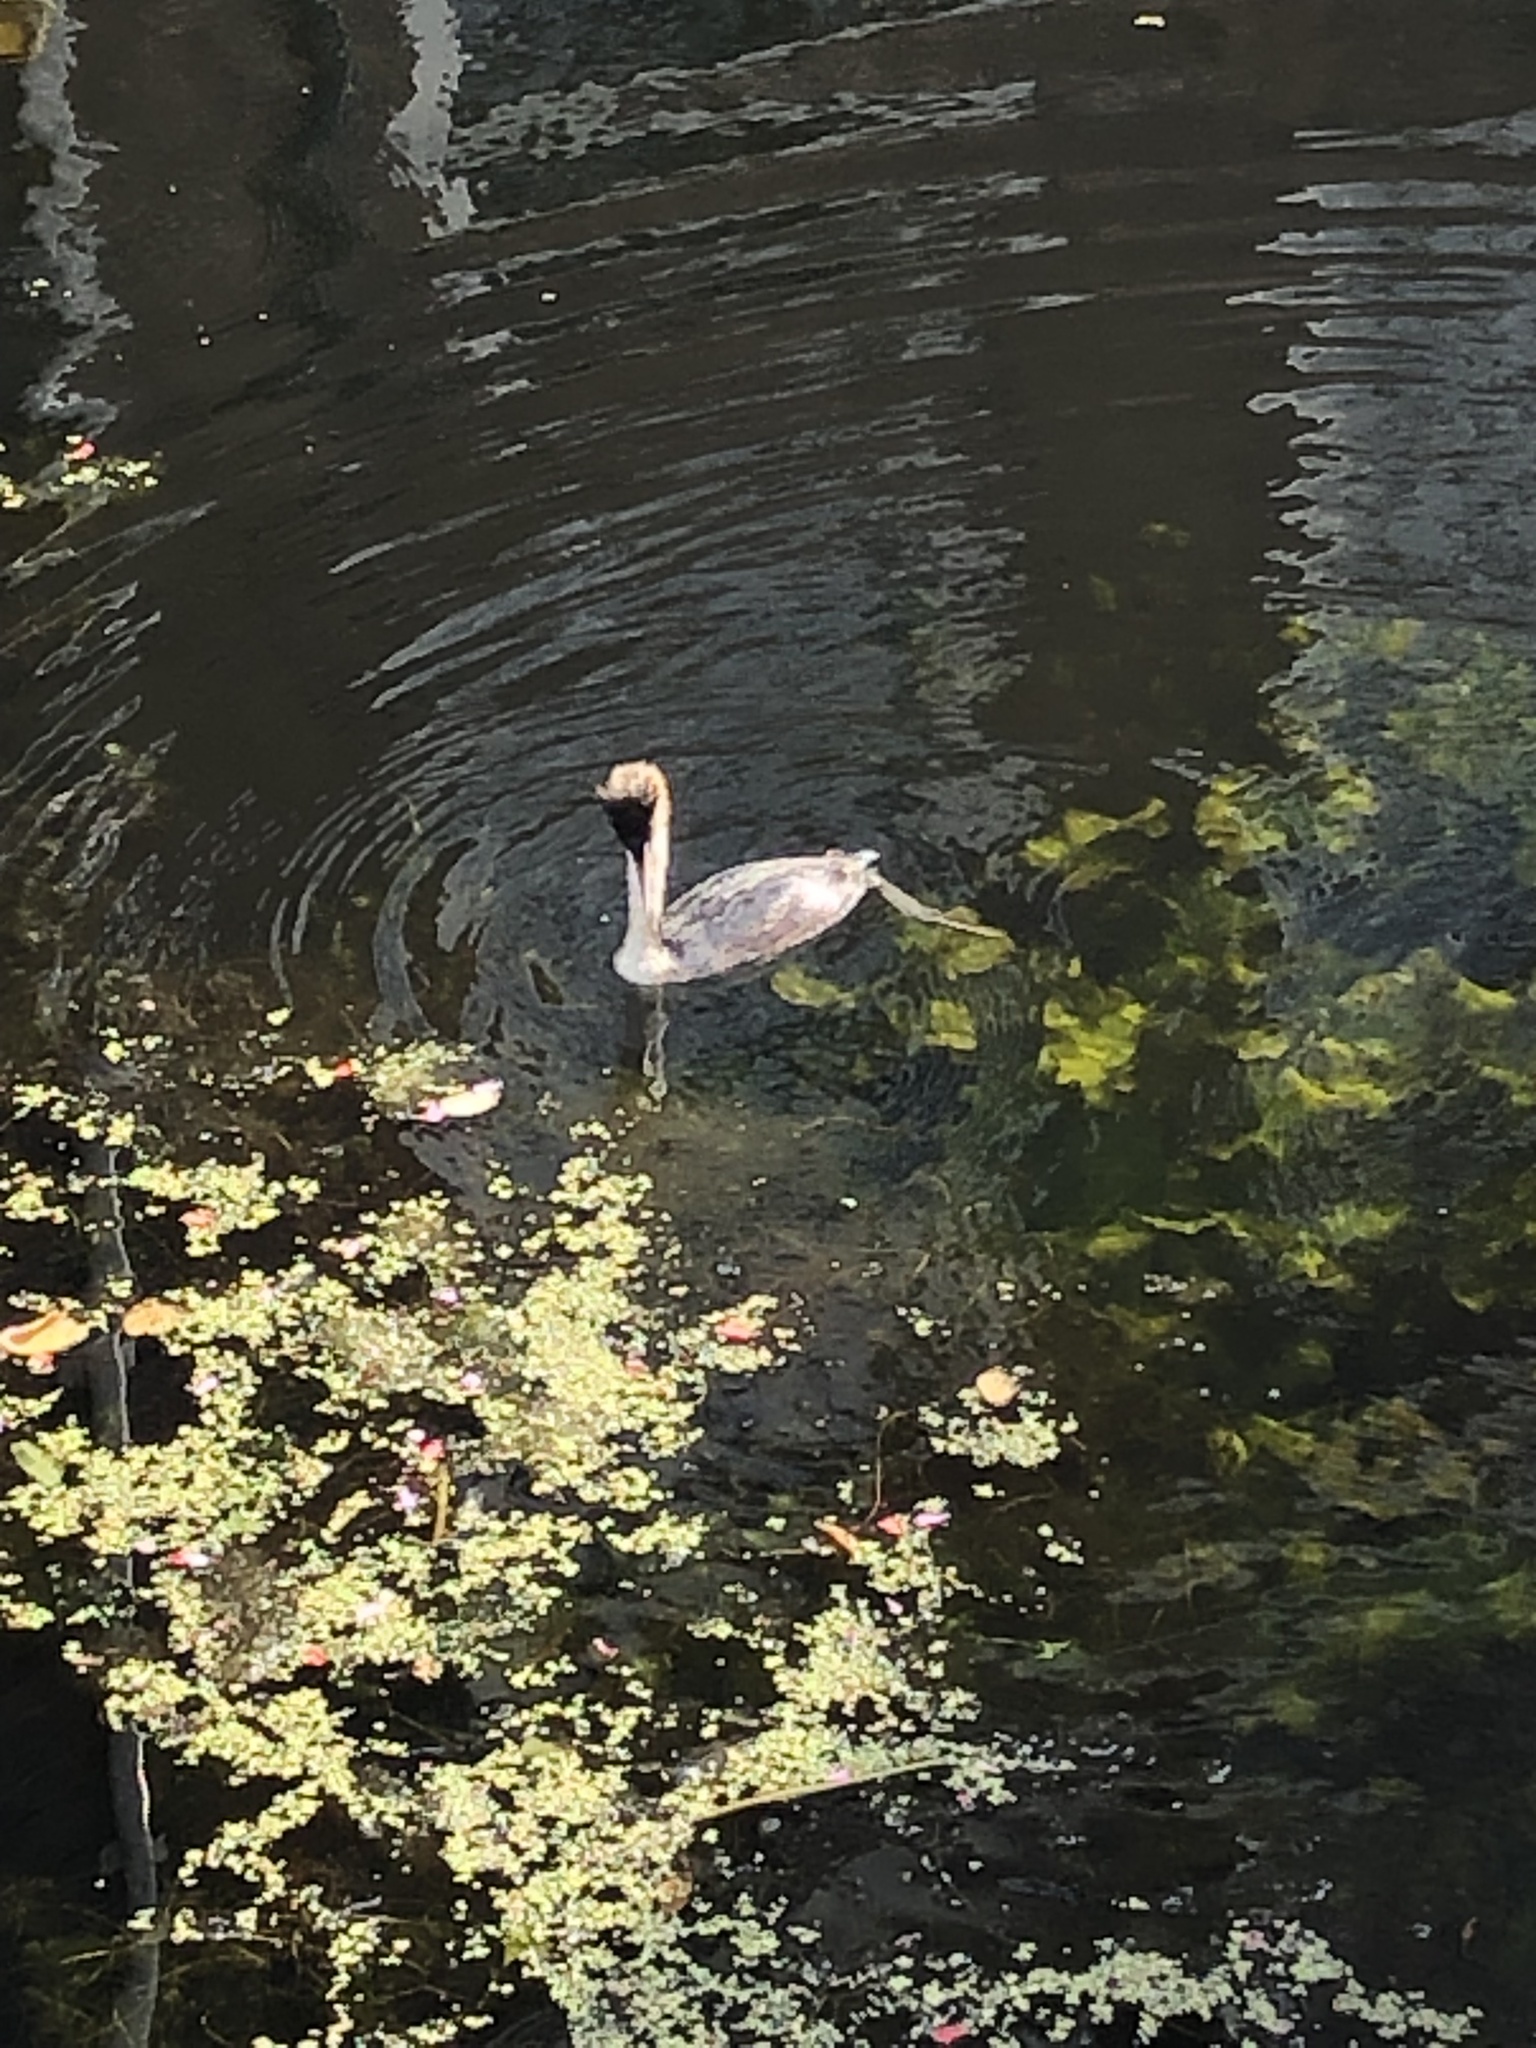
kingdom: Animalia
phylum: Chordata
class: Aves
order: Podicipediformes
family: Podicipedidae
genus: Podiceps
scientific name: Podiceps cristatus
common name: Great crested grebe
